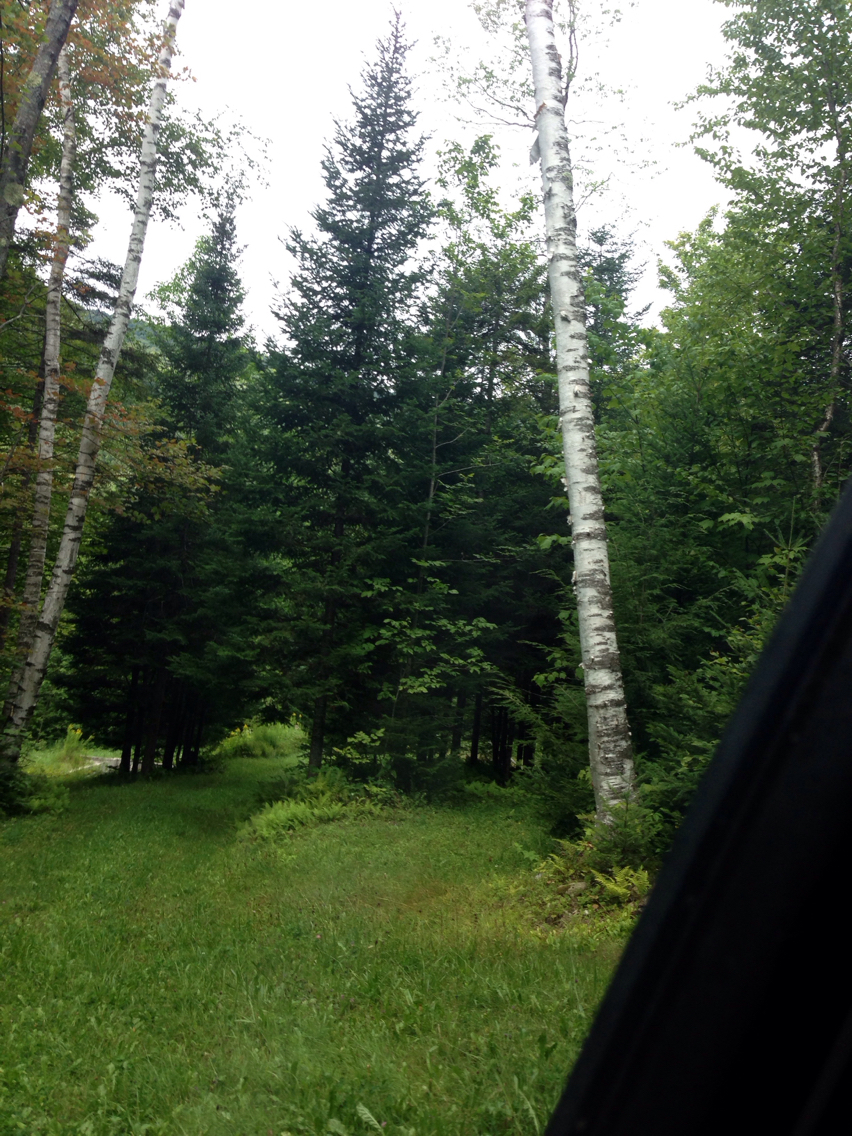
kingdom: Plantae
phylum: Tracheophyta
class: Magnoliopsida
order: Fagales
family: Betulaceae
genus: Betula
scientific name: Betula papyrifera
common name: Paper birch
